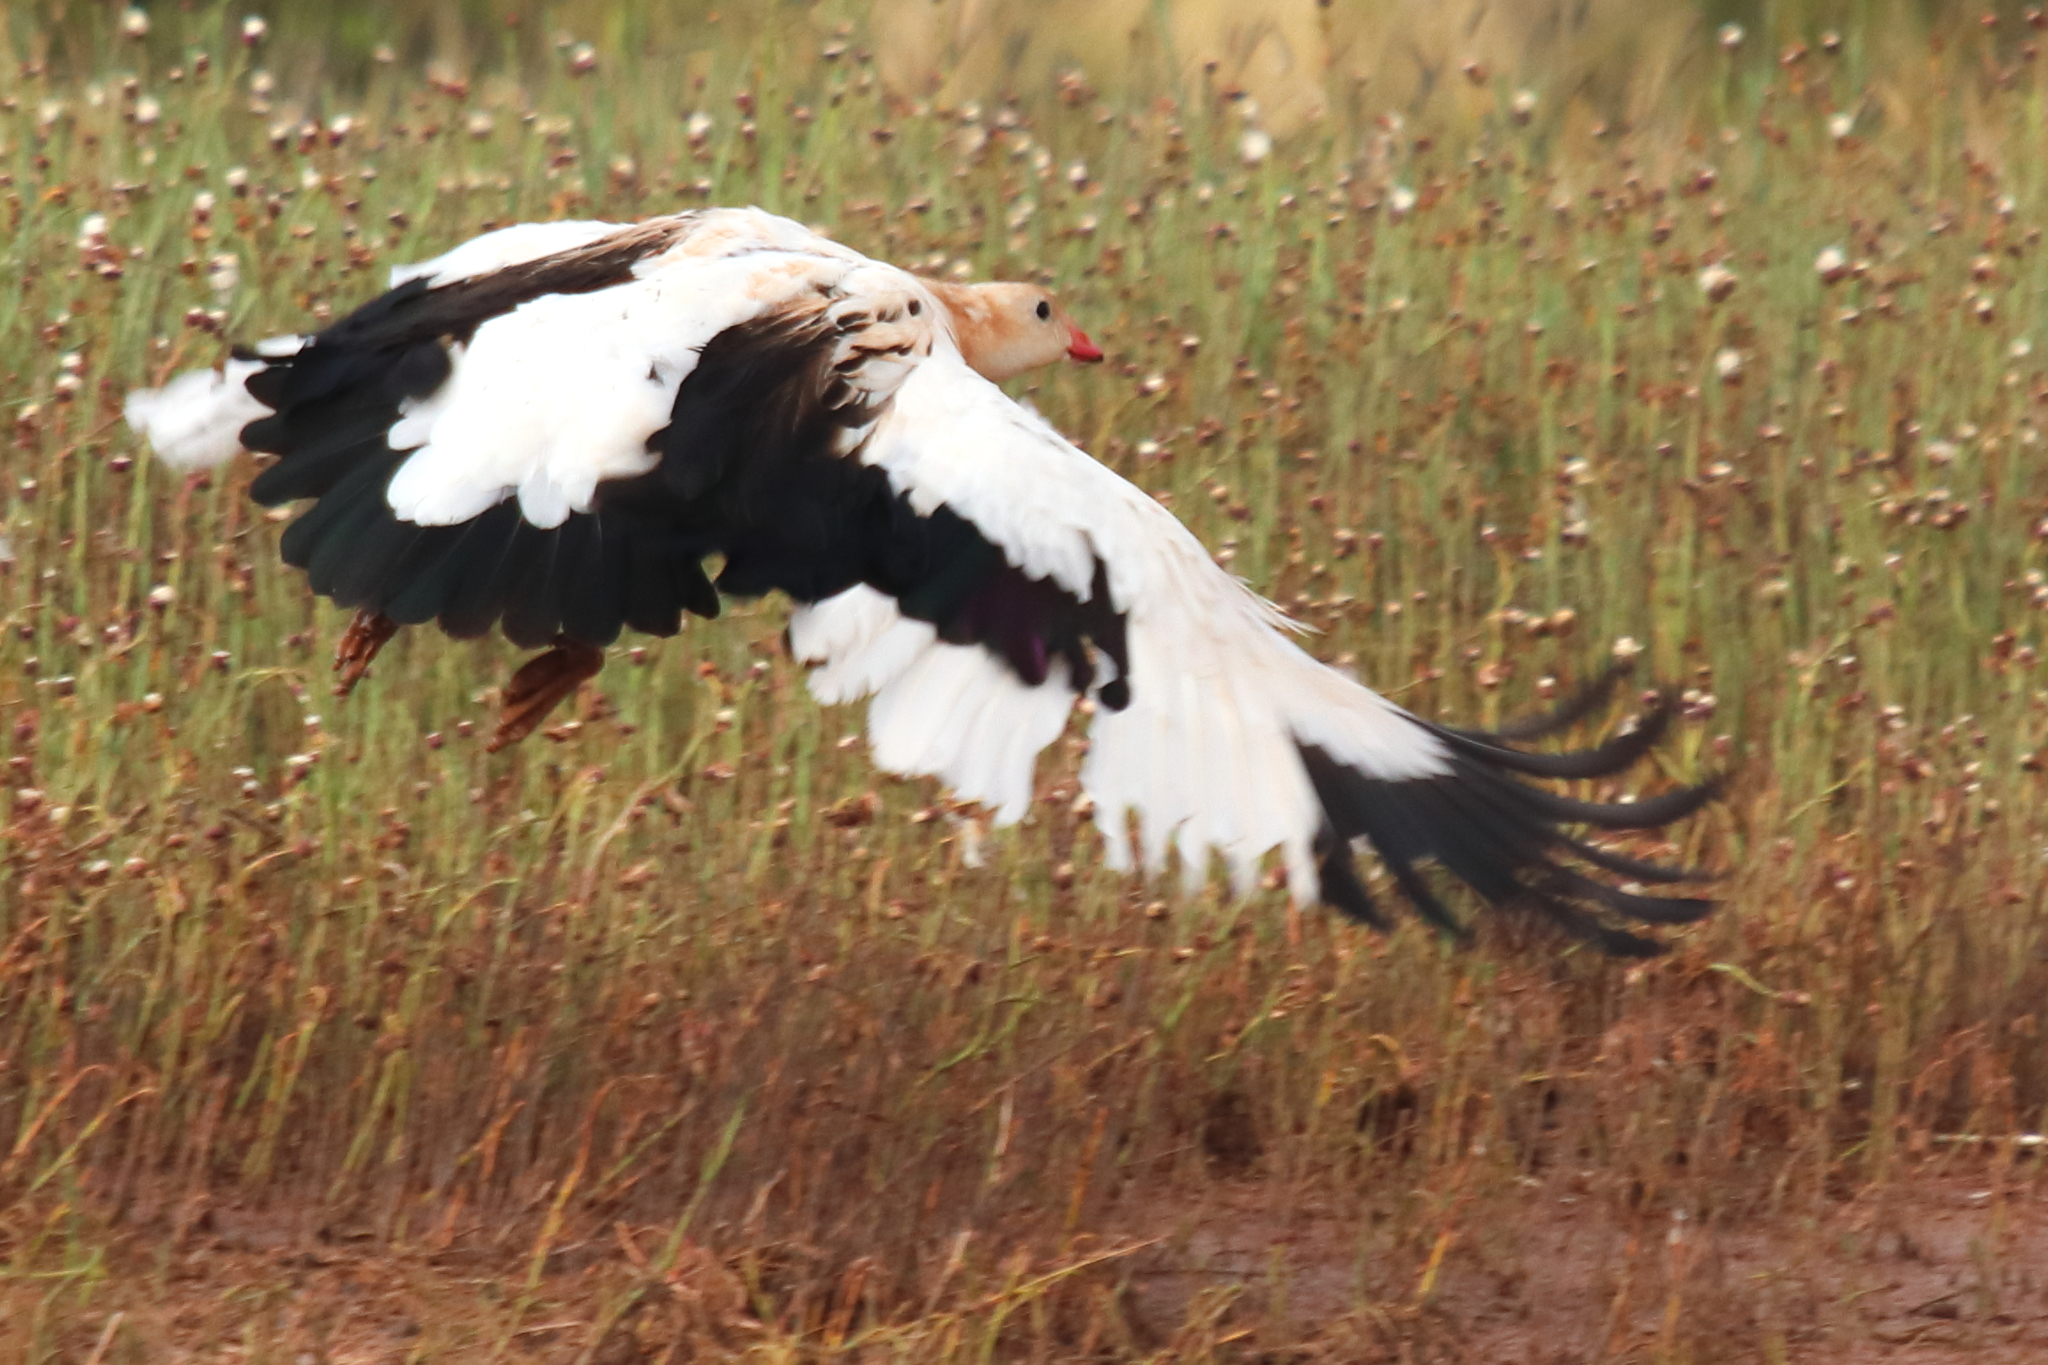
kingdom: Animalia
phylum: Chordata
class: Aves
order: Anseriformes
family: Anatidae
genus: Chloephaga
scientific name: Chloephaga melanoptera
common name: Andean goose
